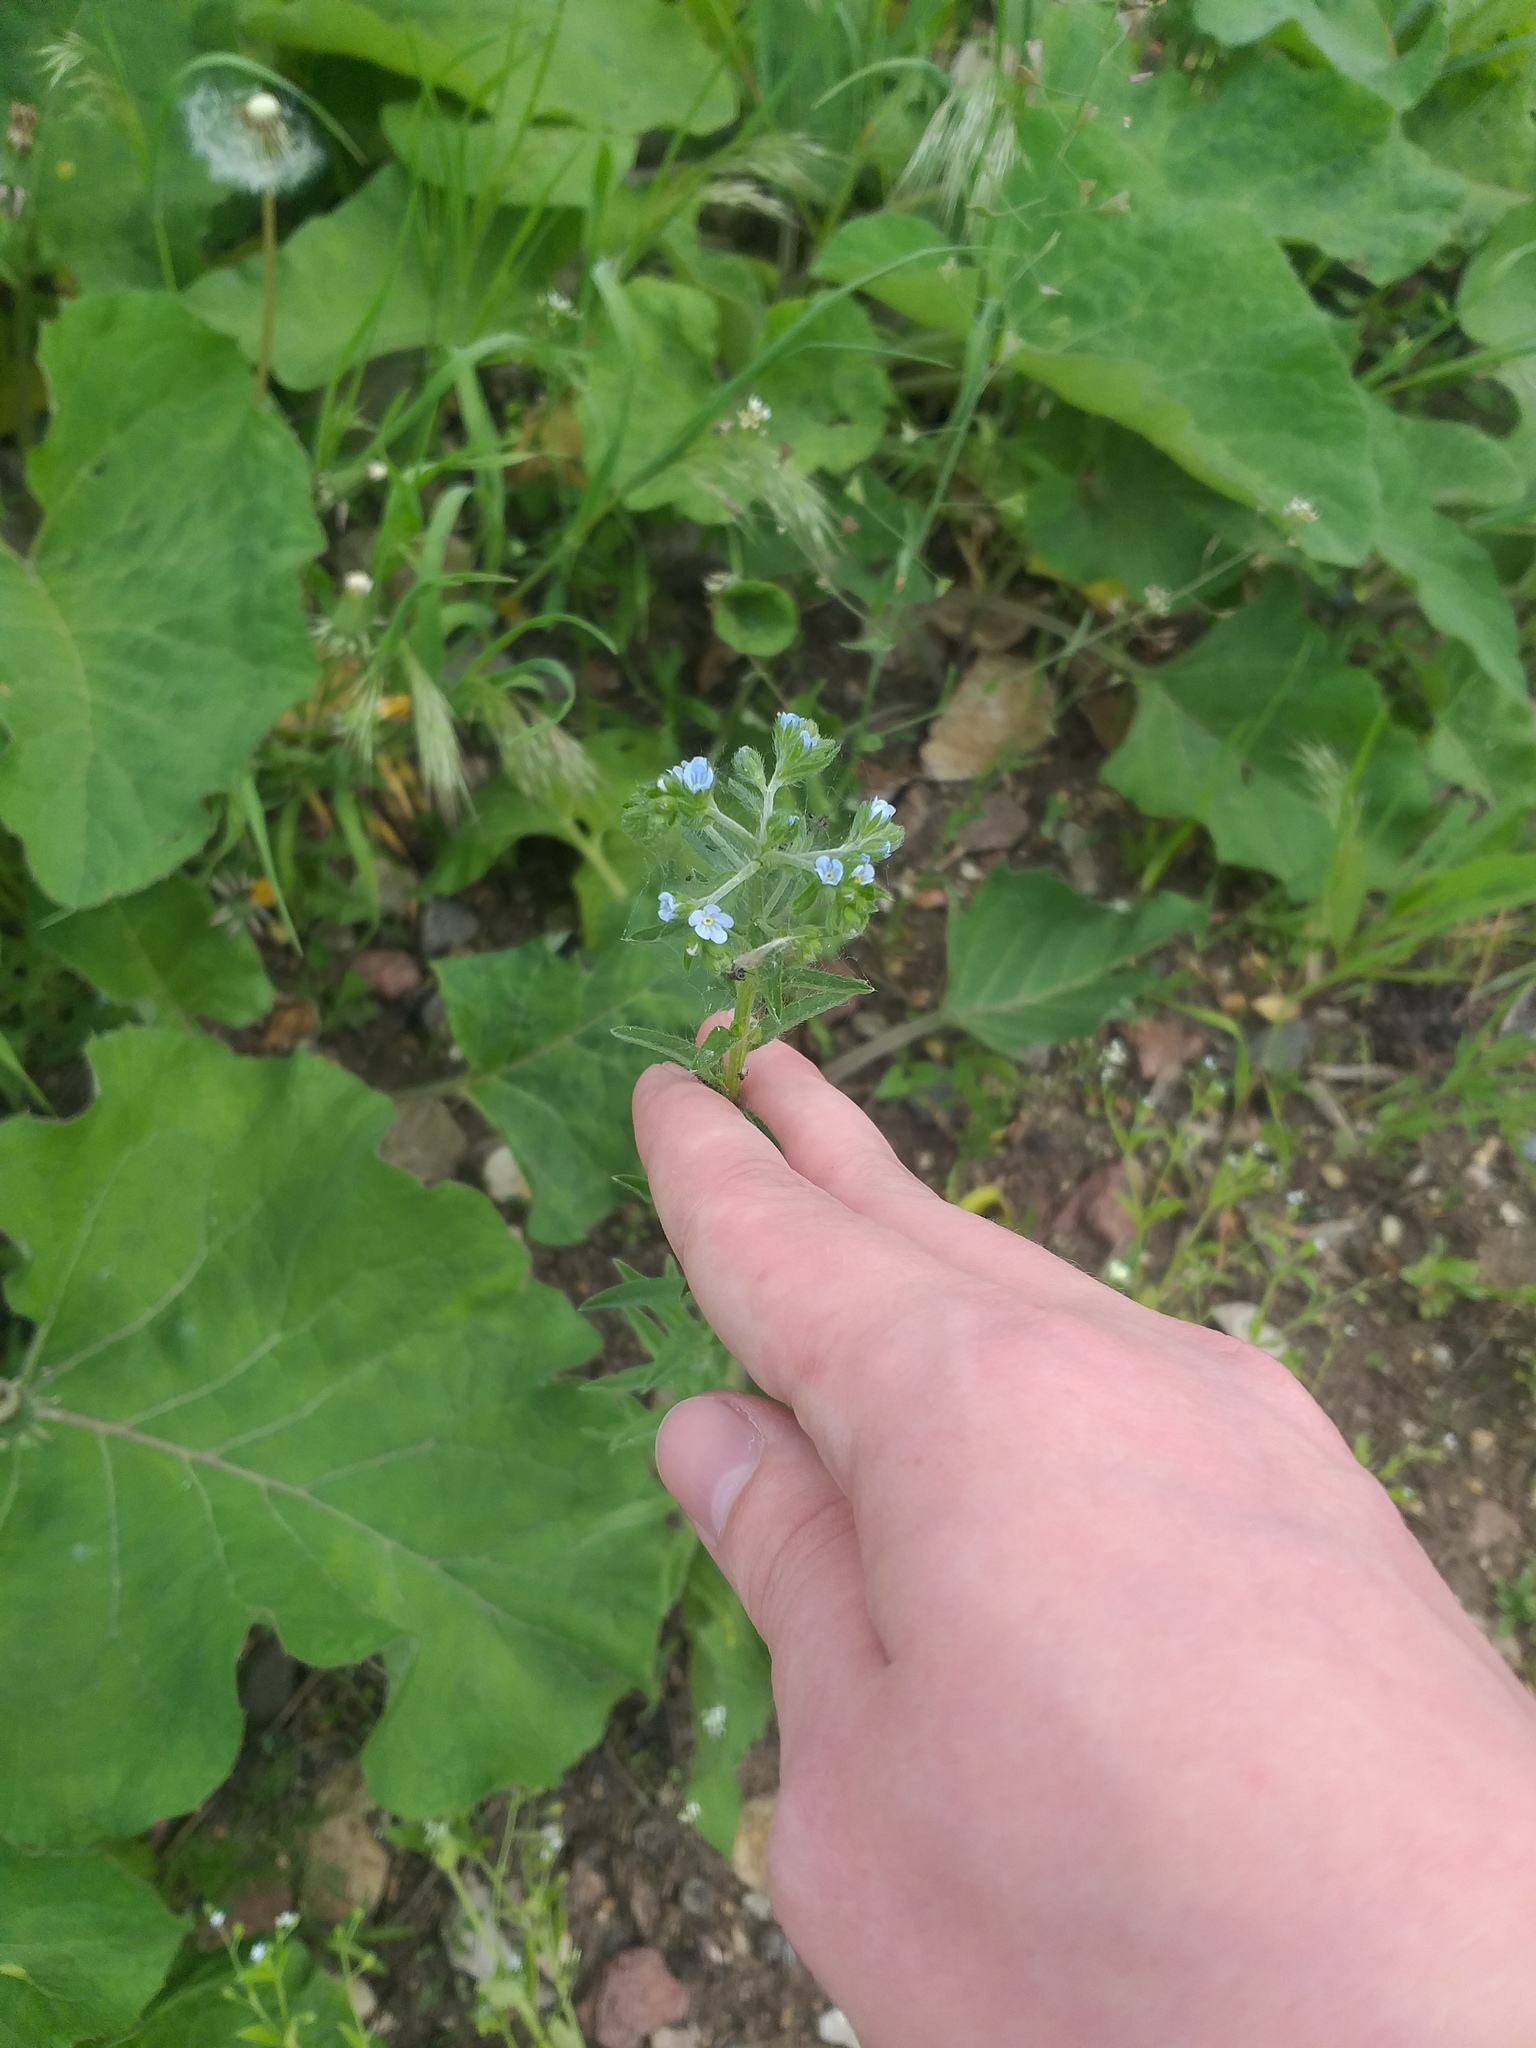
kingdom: Plantae
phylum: Tracheophyta
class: Magnoliopsida
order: Boraginales
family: Boraginaceae
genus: Lappula
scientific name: Lappula squarrosa
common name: European stickseed
